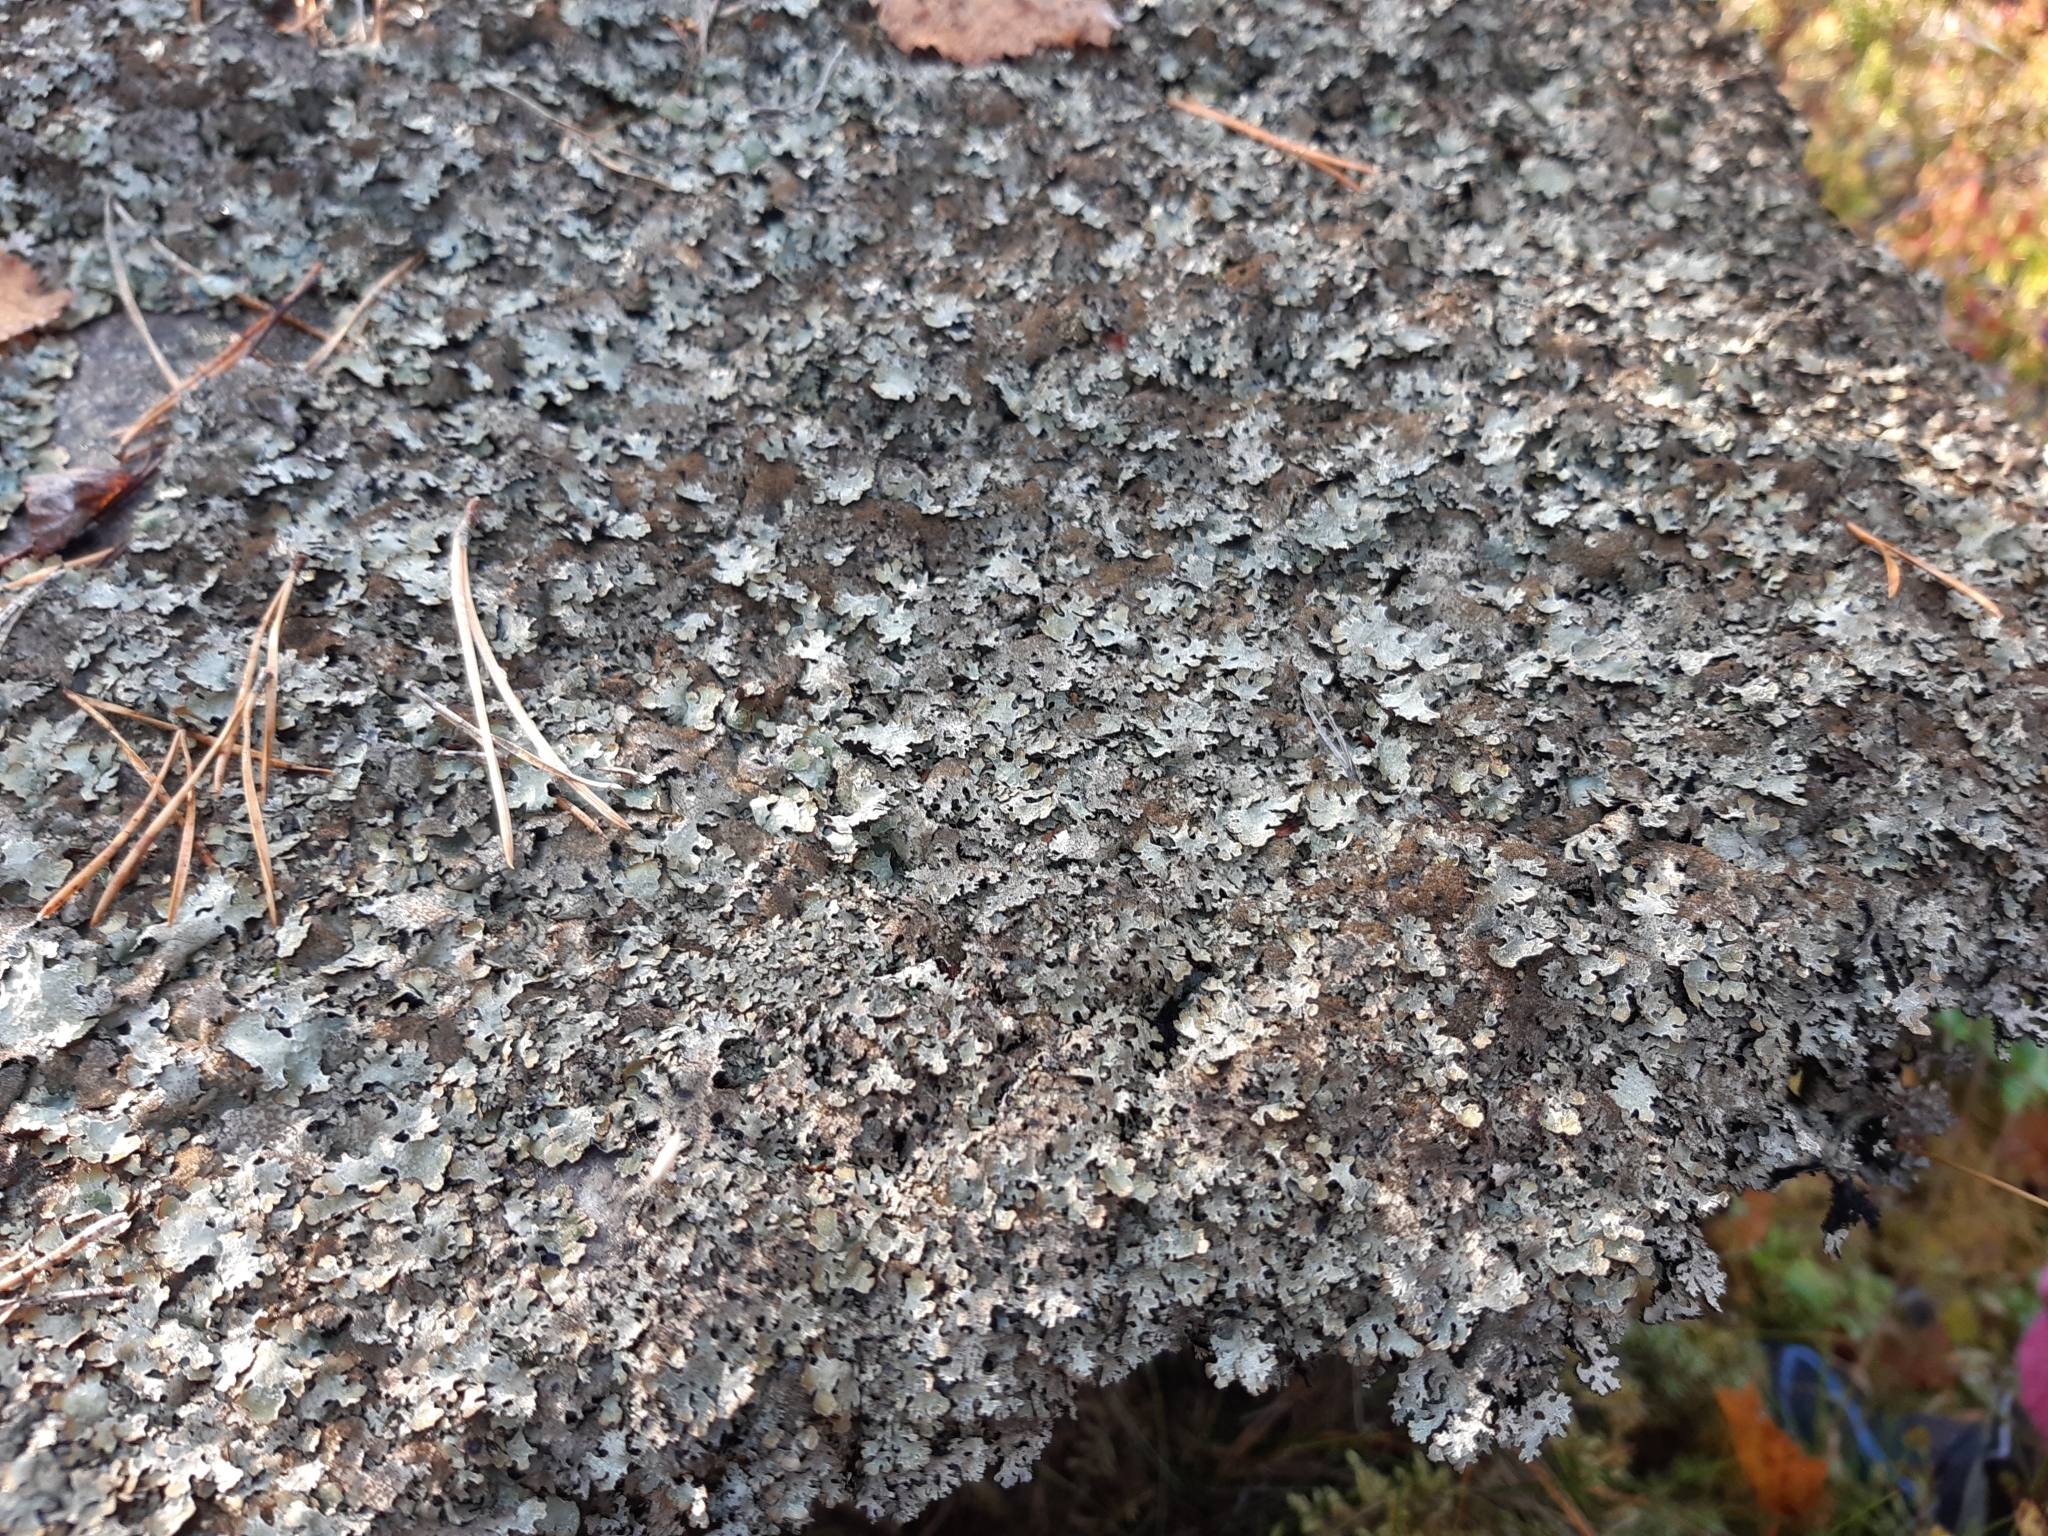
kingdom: Fungi
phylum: Ascomycota
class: Lecanoromycetes
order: Lecanorales
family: Parmeliaceae
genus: Parmelia
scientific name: Parmelia saxatilis
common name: Salted shield lichen
